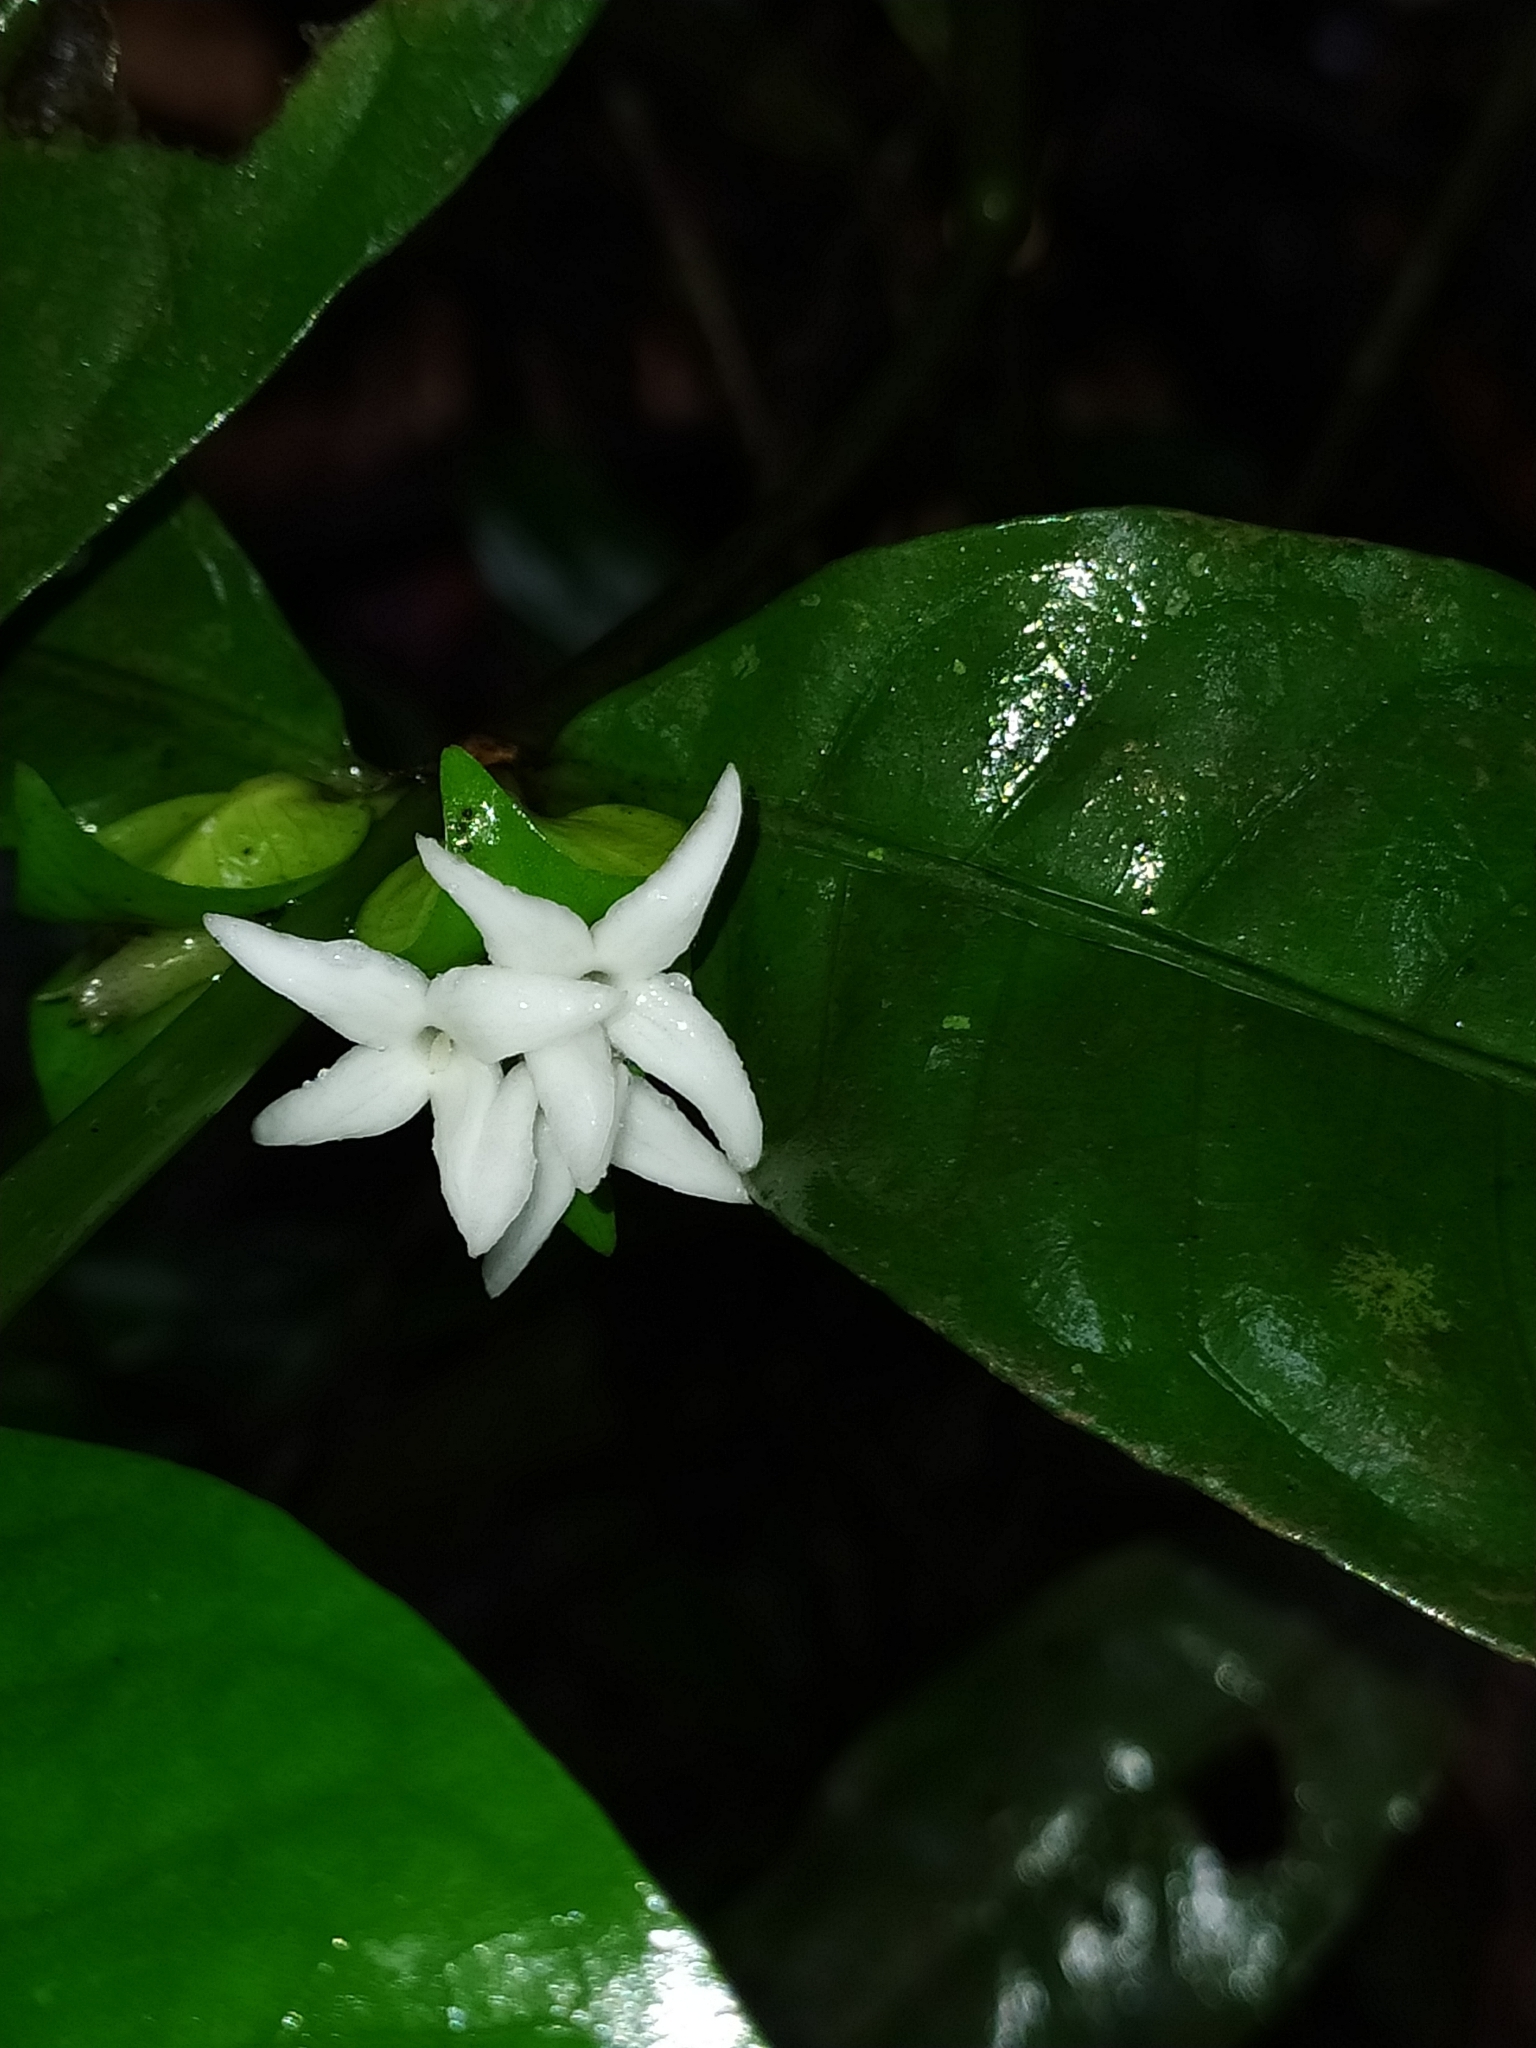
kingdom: Plantae
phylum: Tracheophyta
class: Magnoliopsida
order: Gentianales
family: Rubiaceae
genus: Faramea
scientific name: Faramea guianensis
